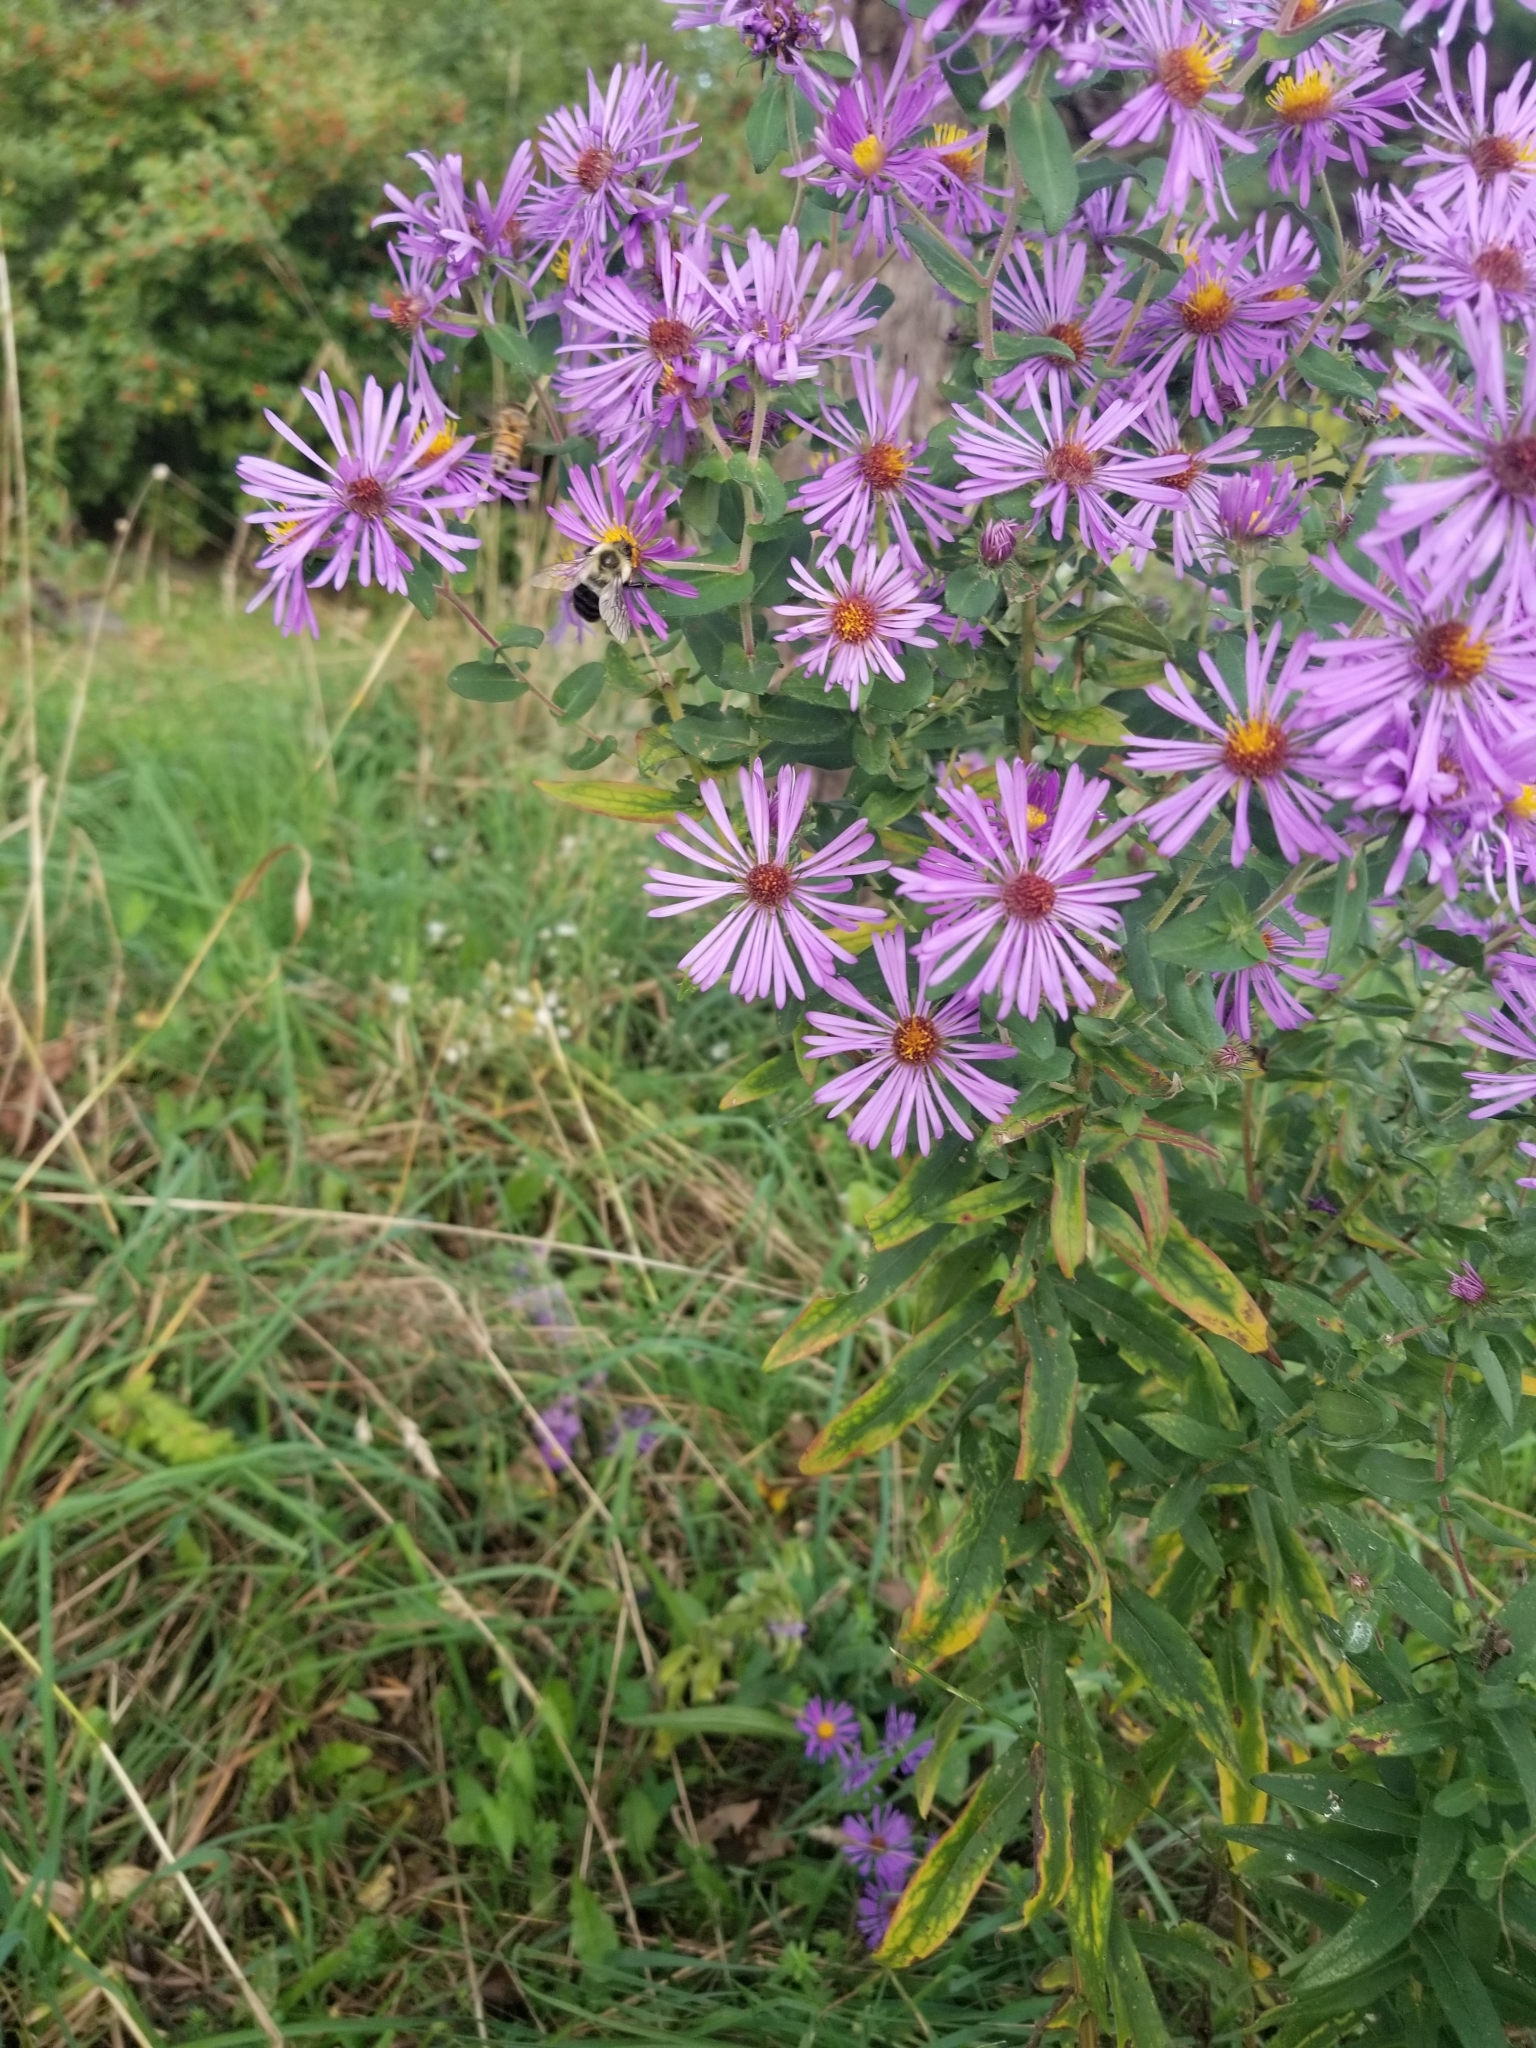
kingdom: Animalia
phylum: Arthropoda
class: Insecta
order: Hymenoptera
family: Apidae
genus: Bombus
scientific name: Bombus impatiens
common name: Common eastern bumble bee
